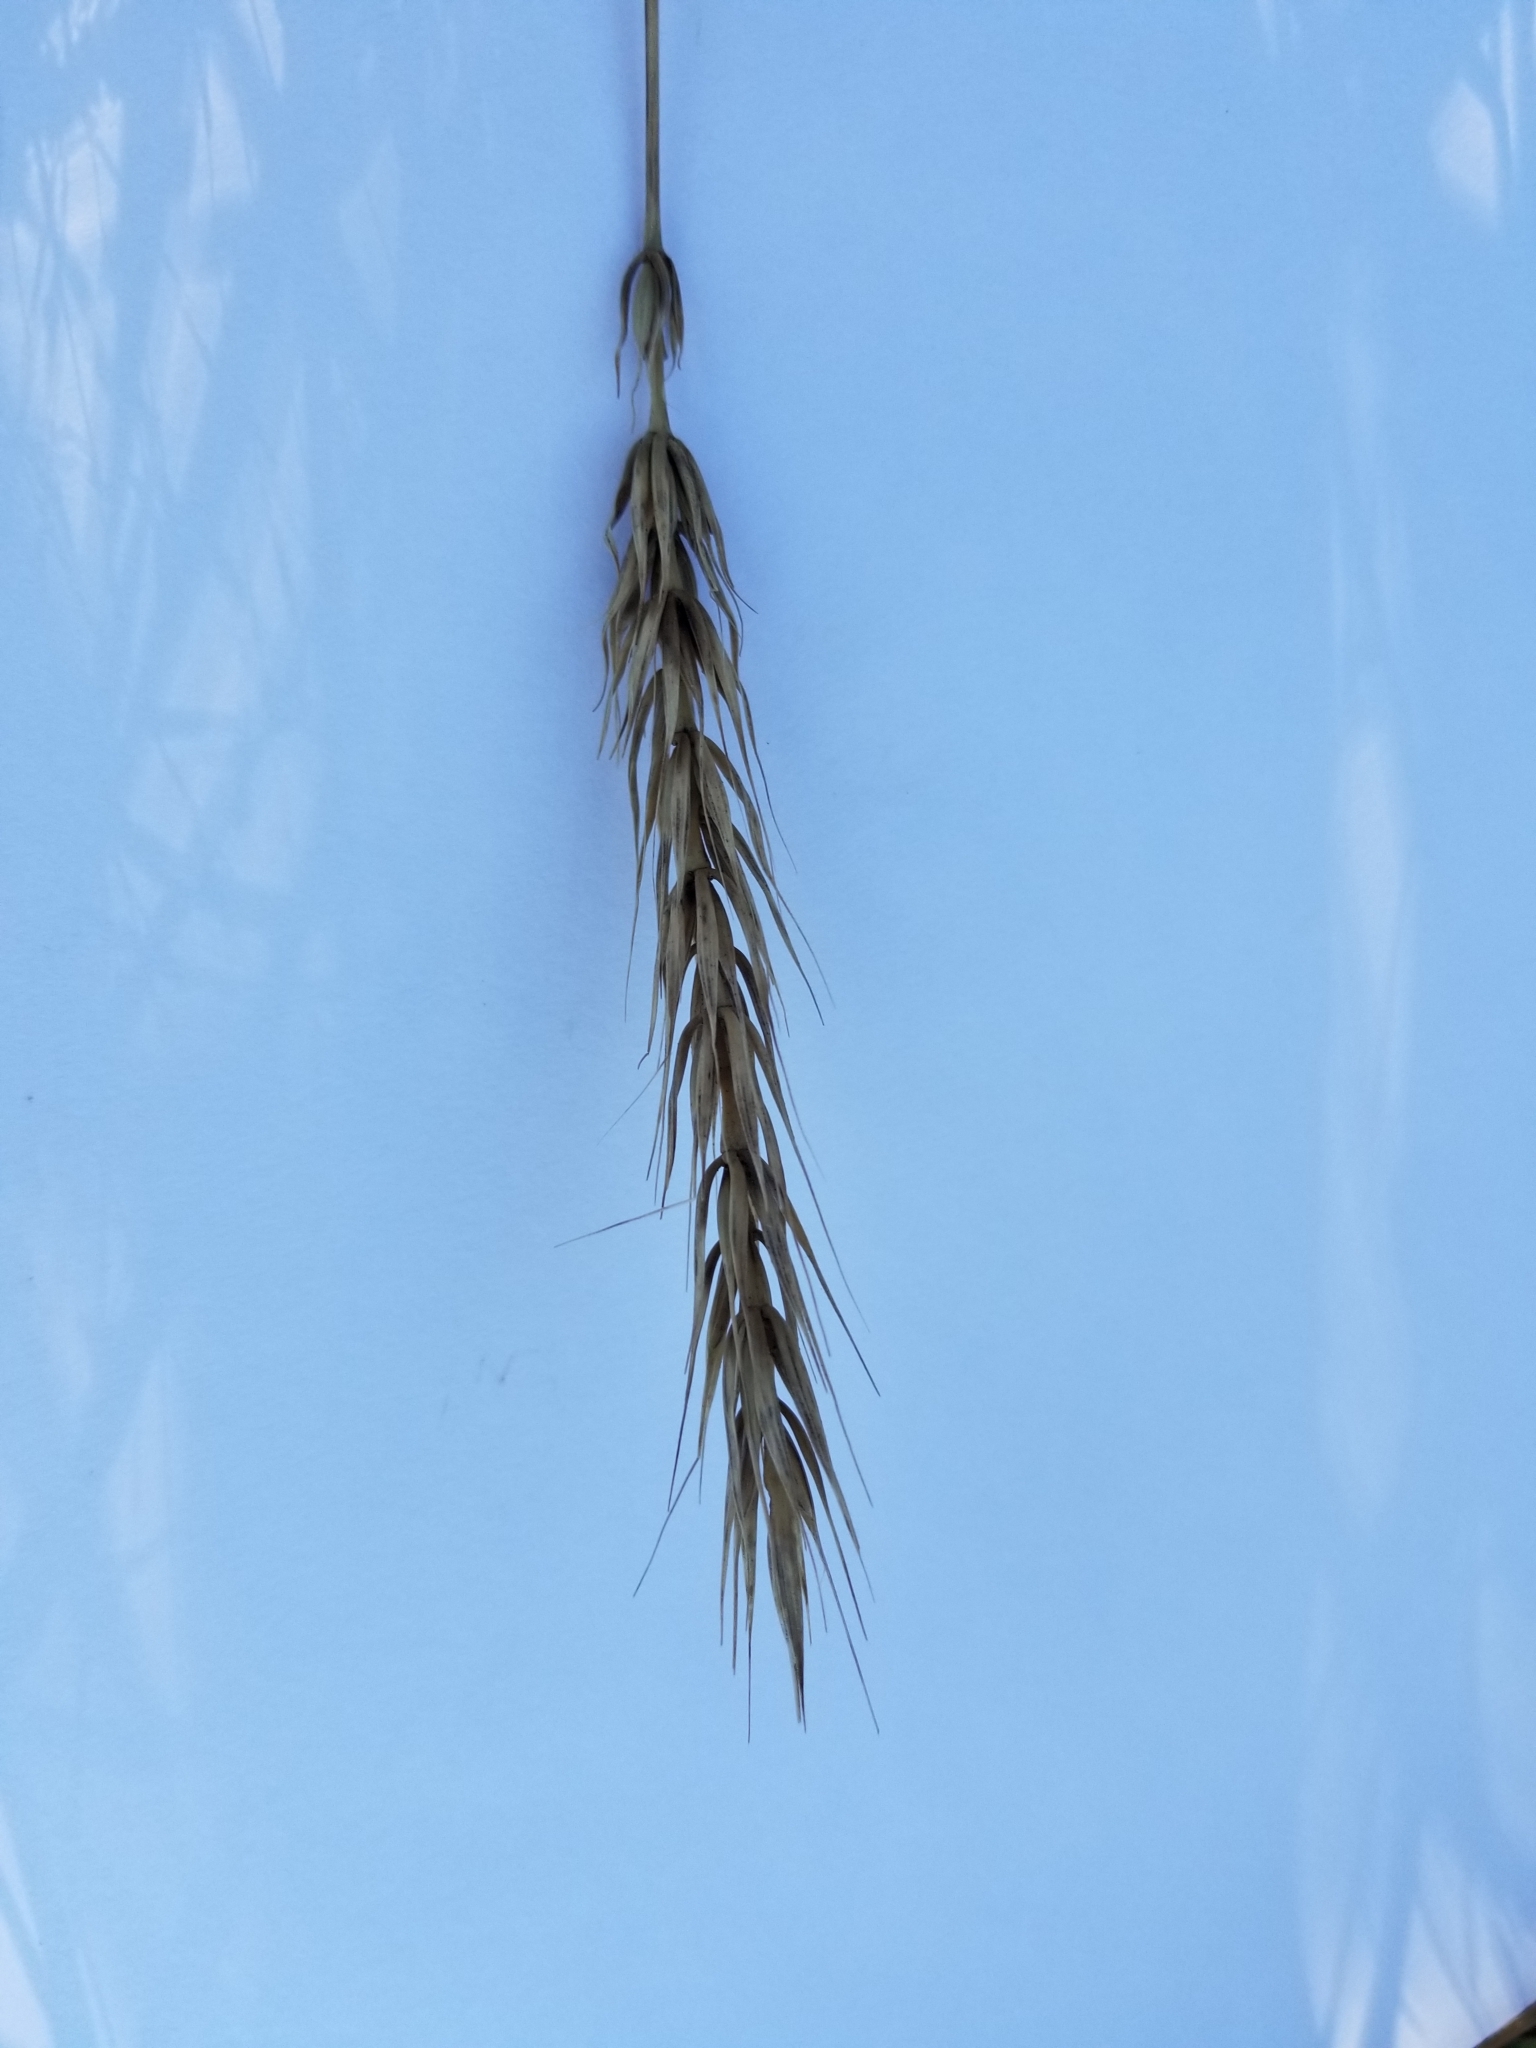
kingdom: Plantae
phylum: Tracheophyta
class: Liliopsida
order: Poales
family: Poaceae
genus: Elymus
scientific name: Elymus virginicus
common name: Common eastern wildrye
